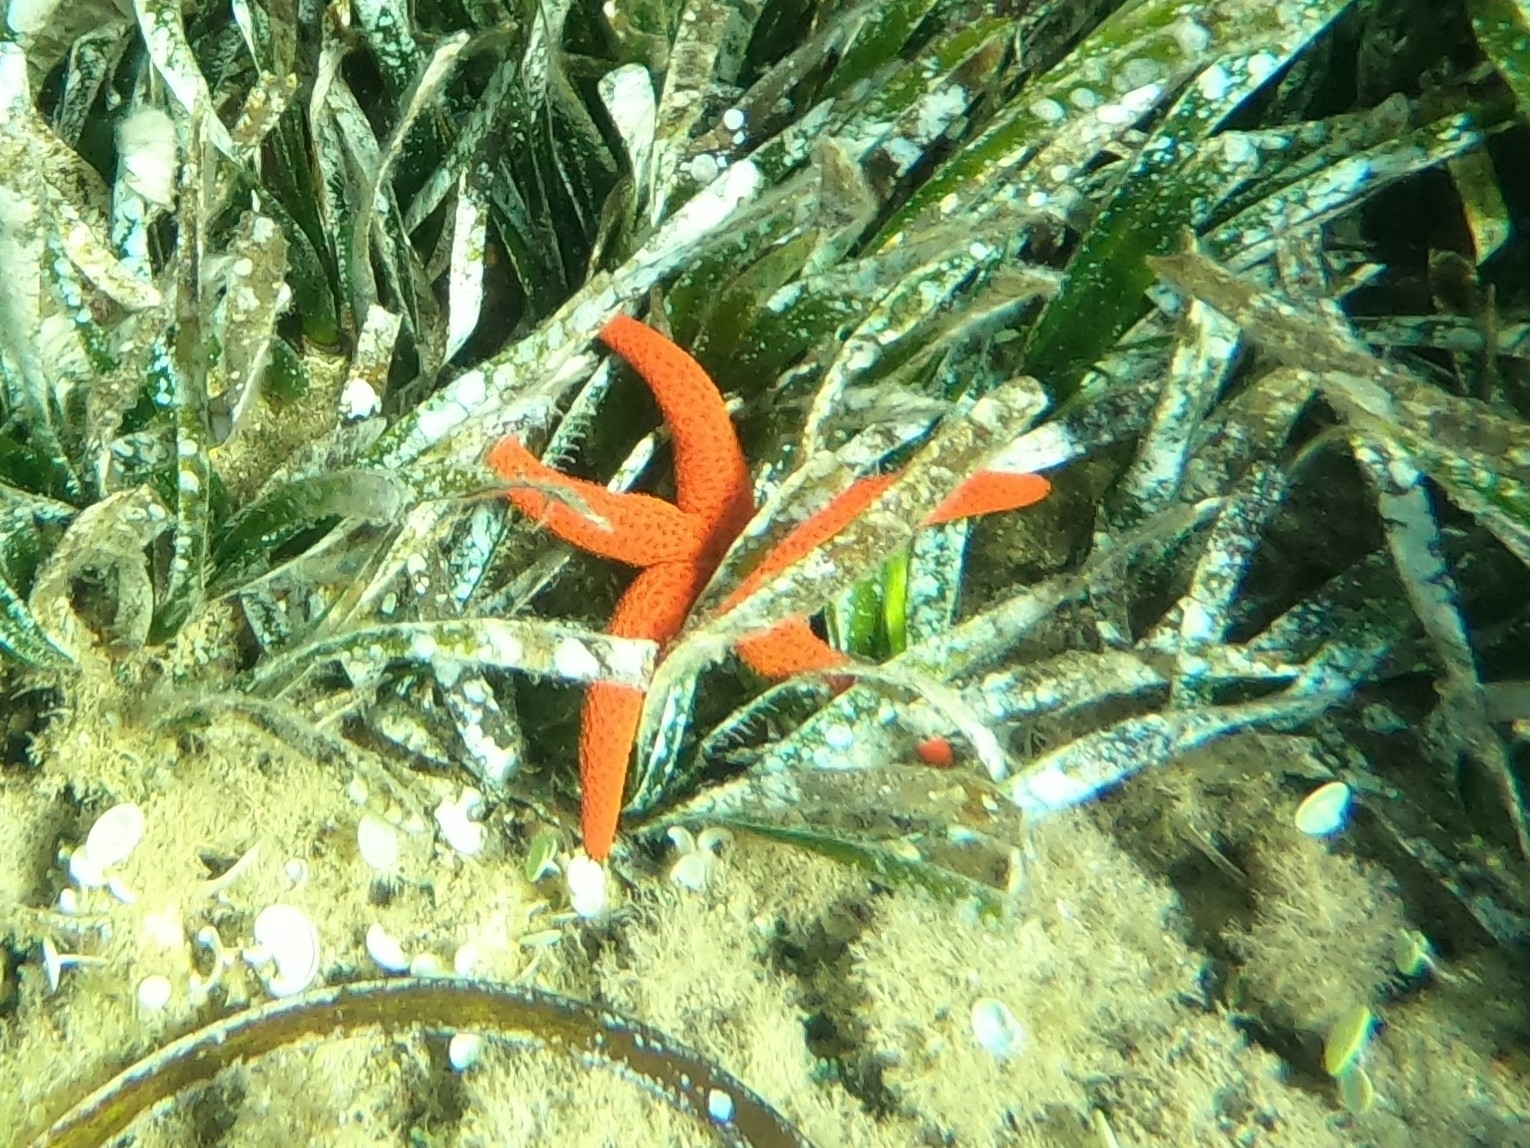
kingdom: Animalia
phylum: Echinodermata
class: Asteroidea
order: Spinulosida
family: Echinasteridae
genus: Echinaster
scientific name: Echinaster sepositus
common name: Red starfish
